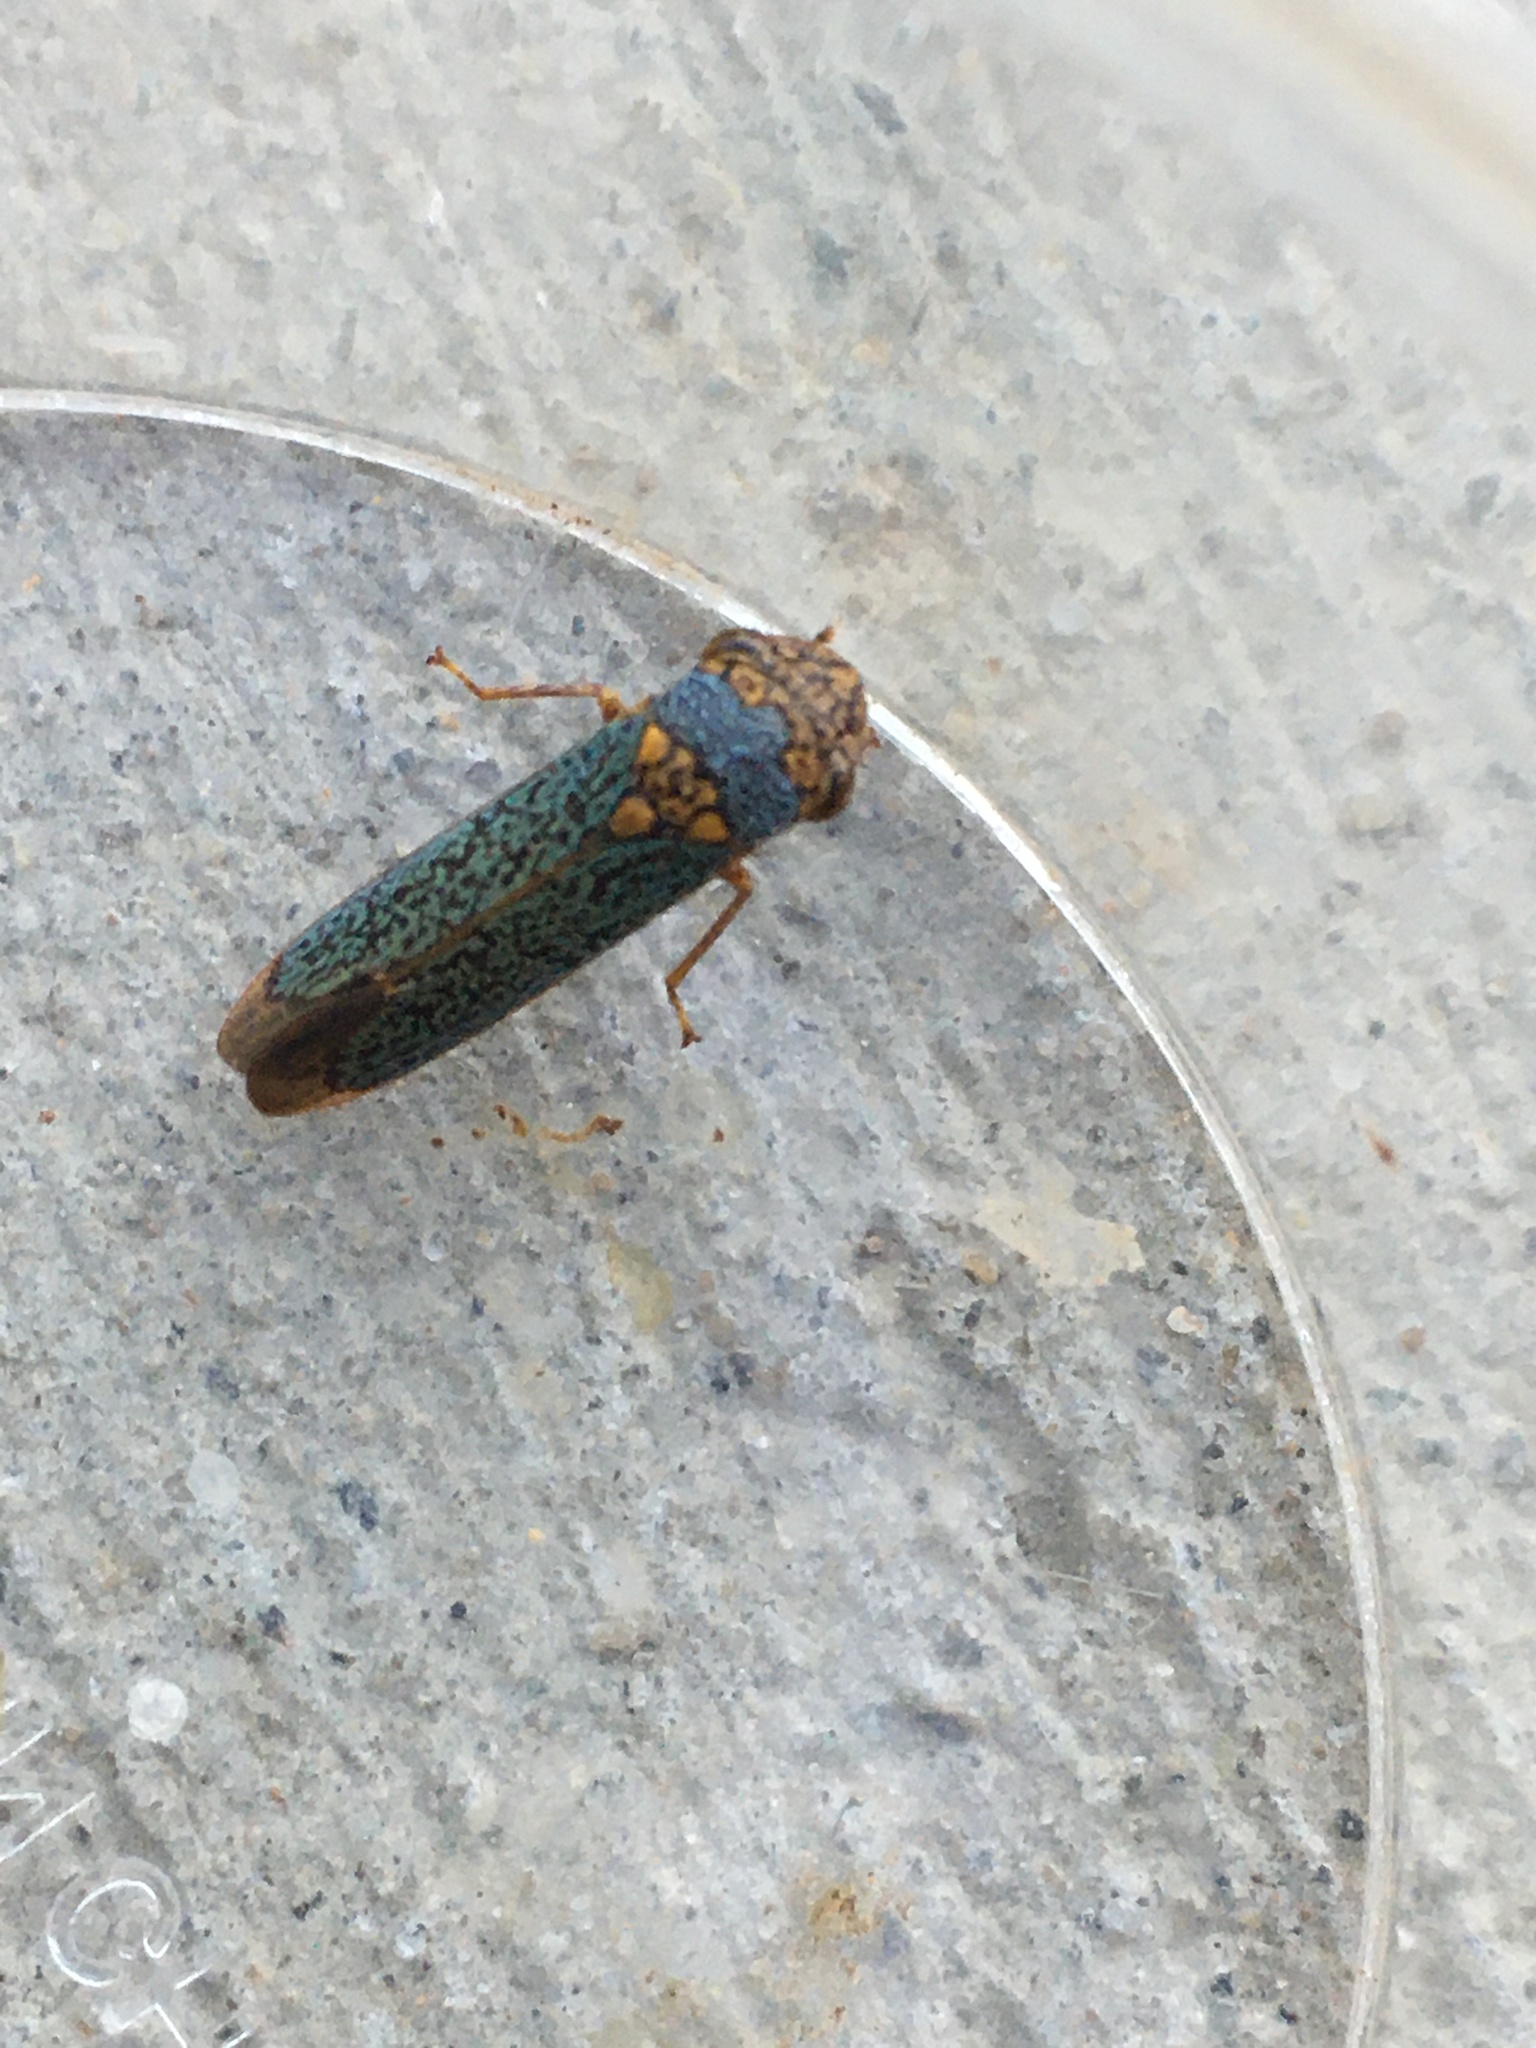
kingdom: Animalia
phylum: Arthropoda
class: Insecta
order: Hemiptera
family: Cicadellidae
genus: Oncometopia
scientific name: Oncometopia orbona
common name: Broad-headed sharpshooter
